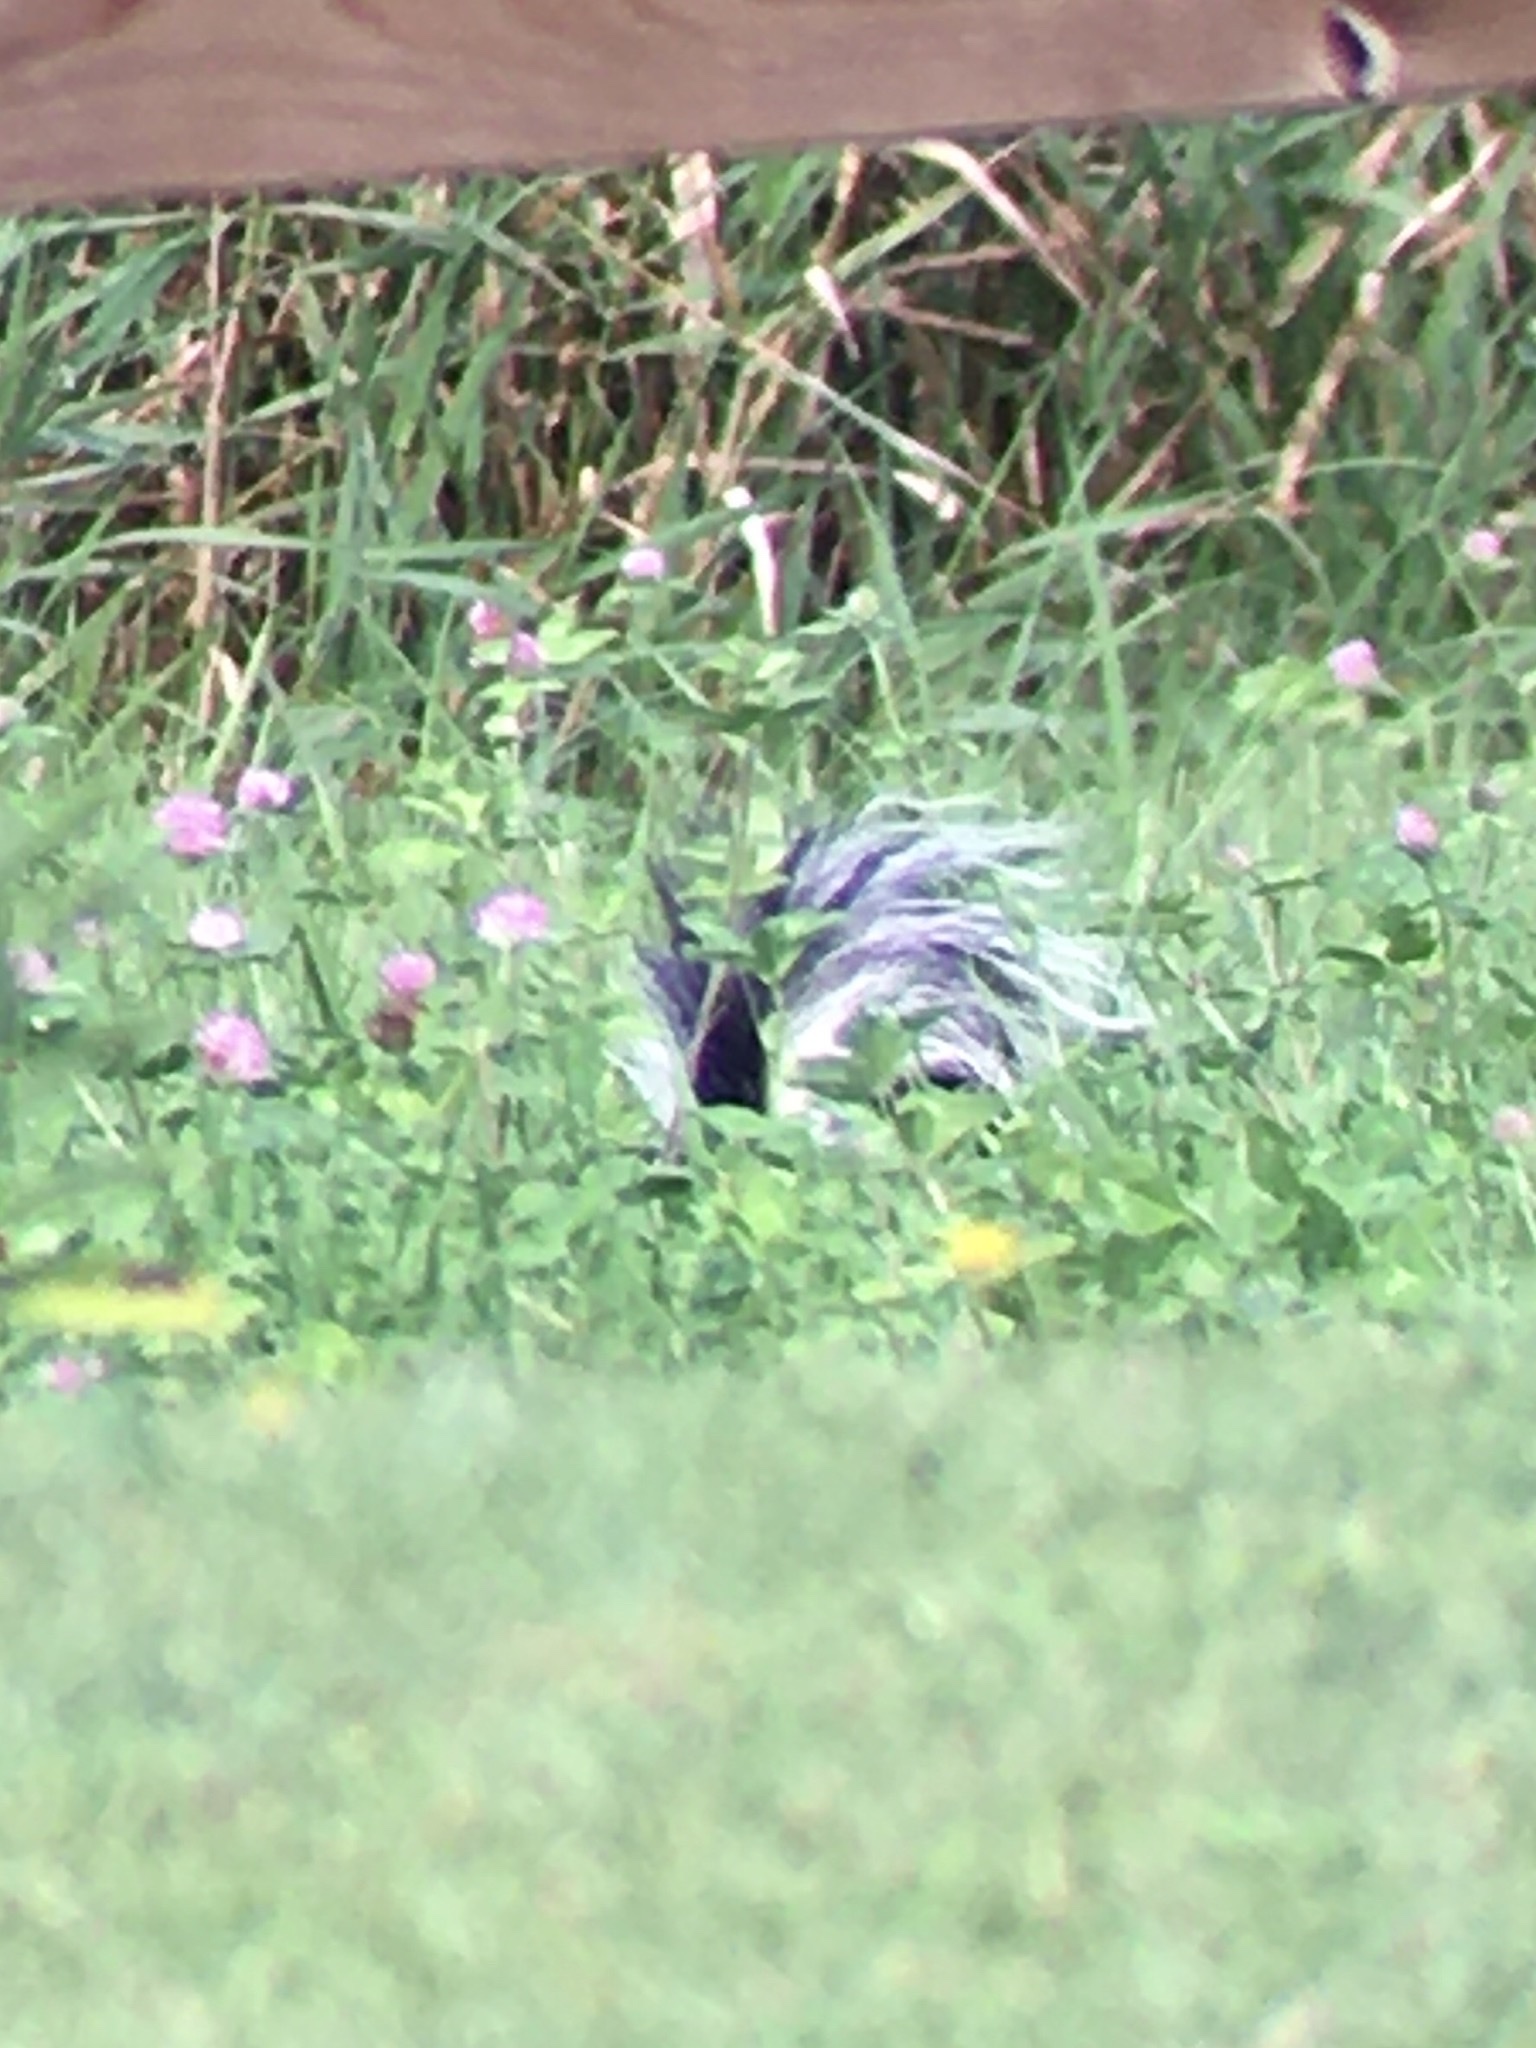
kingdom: Animalia
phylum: Chordata
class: Mammalia
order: Carnivora
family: Mephitidae
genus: Mephitis
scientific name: Mephitis mephitis
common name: Striped skunk
